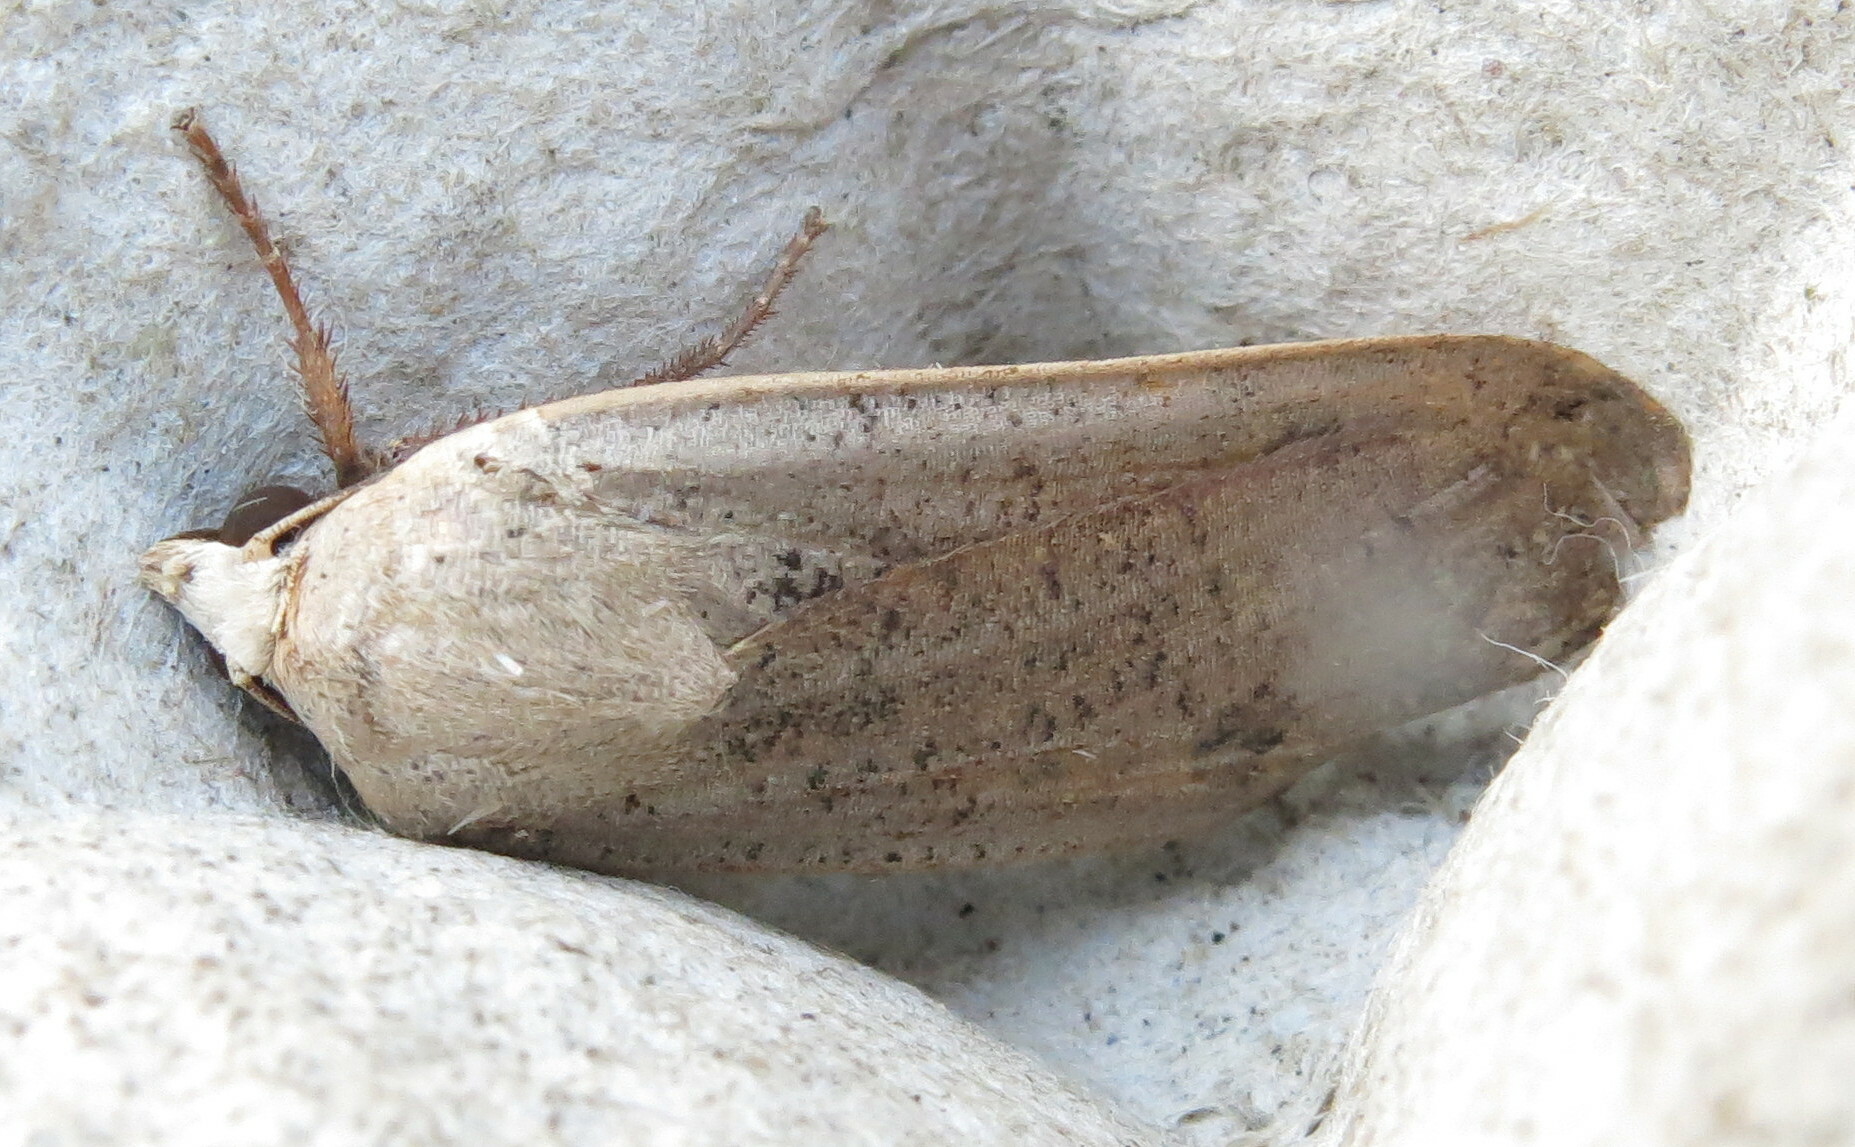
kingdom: Animalia
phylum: Arthropoda
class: Insecta
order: Lepidoptera
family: Noctuidae
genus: Noctua
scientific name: Noctua pronuba
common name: Large yellow underwing
